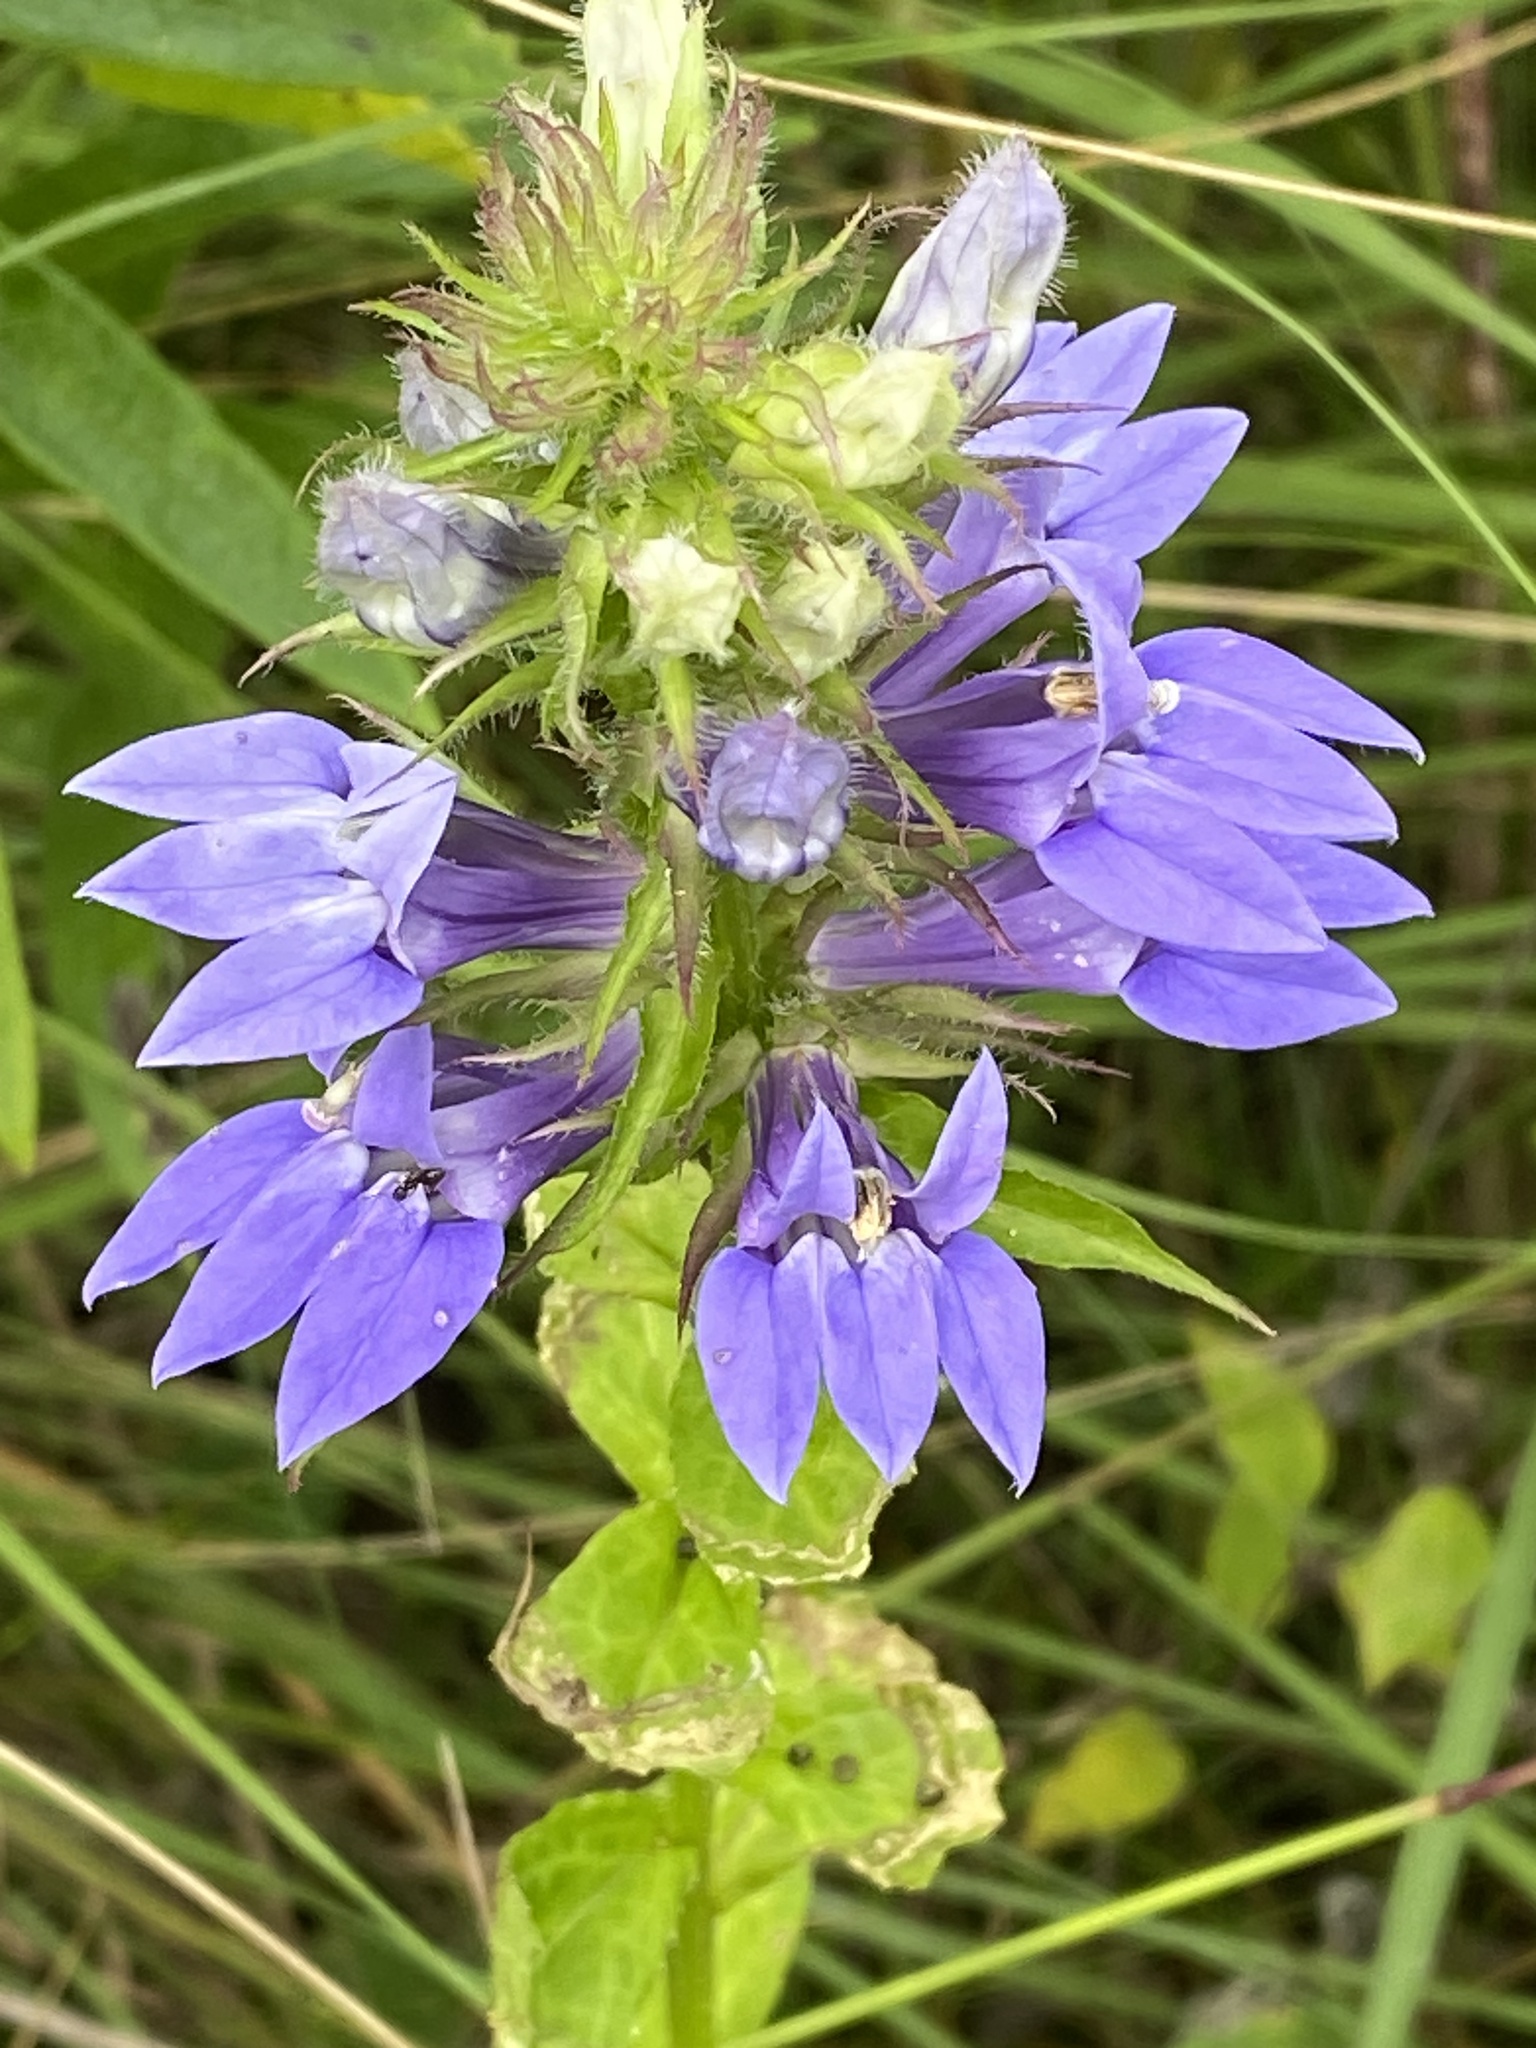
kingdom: Plantae
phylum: Tracheophyta
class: Magnoliopsida
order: Asterales
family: Campanulaceae
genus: Lobelia
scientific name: Lobelia siphilitica
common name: Great lobelia
